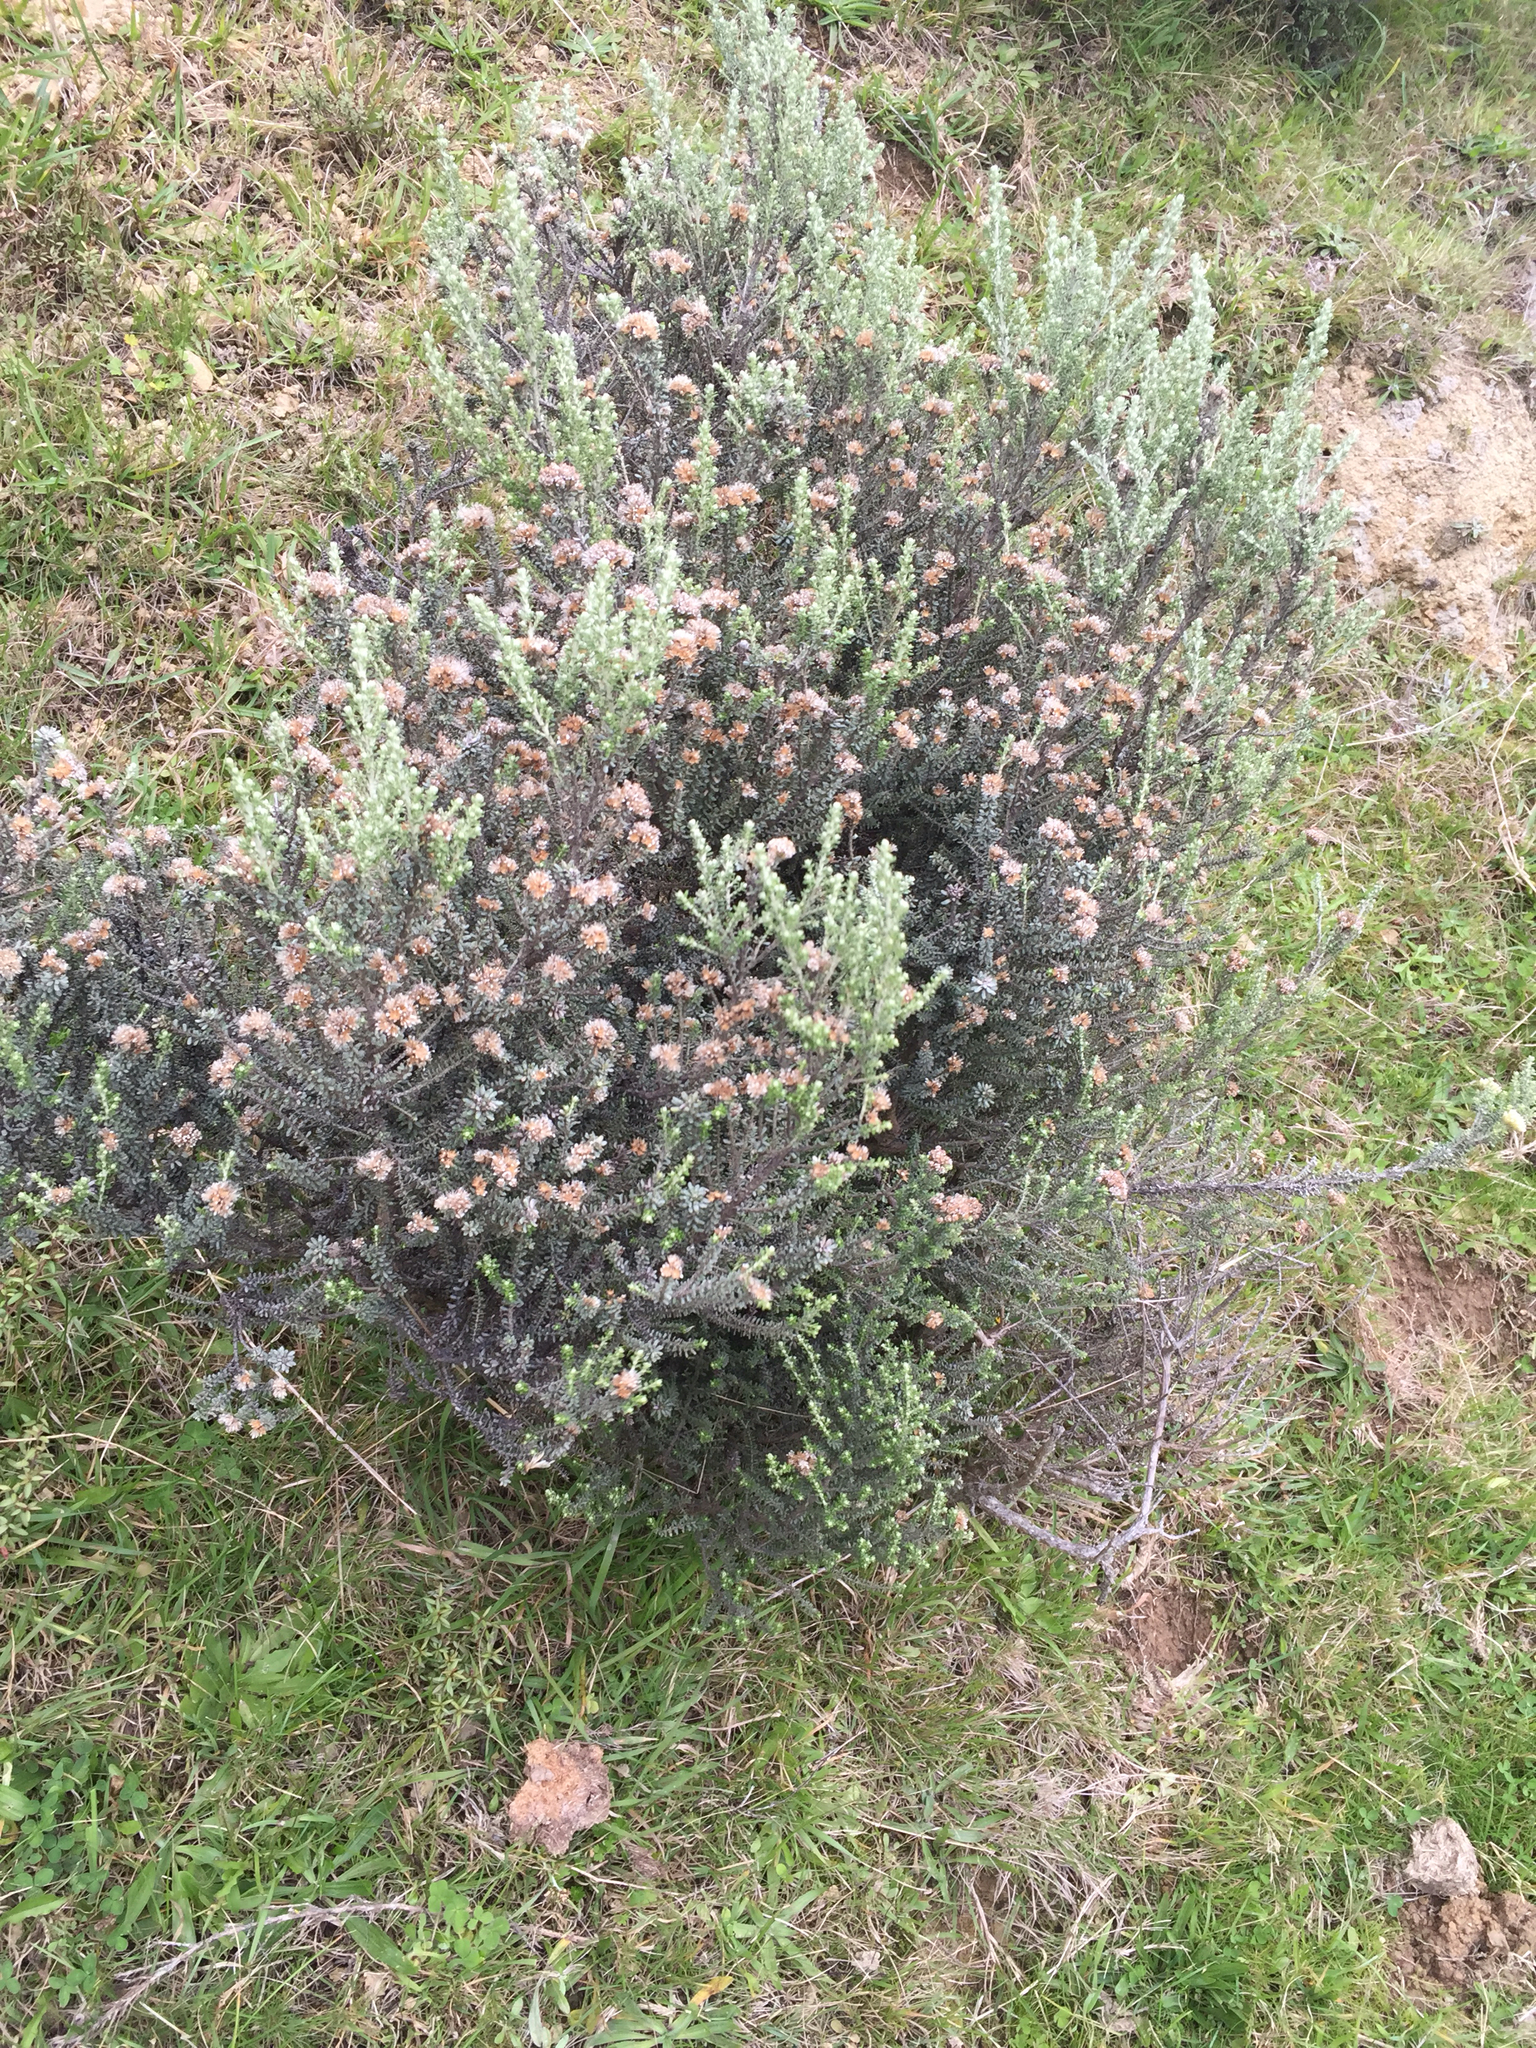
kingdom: Plantae
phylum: Tracheophyta
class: Magnoliopsida
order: Asterales
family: Asteraceae
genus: Ozothamnus
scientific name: Ozothamnus leptophyllus
